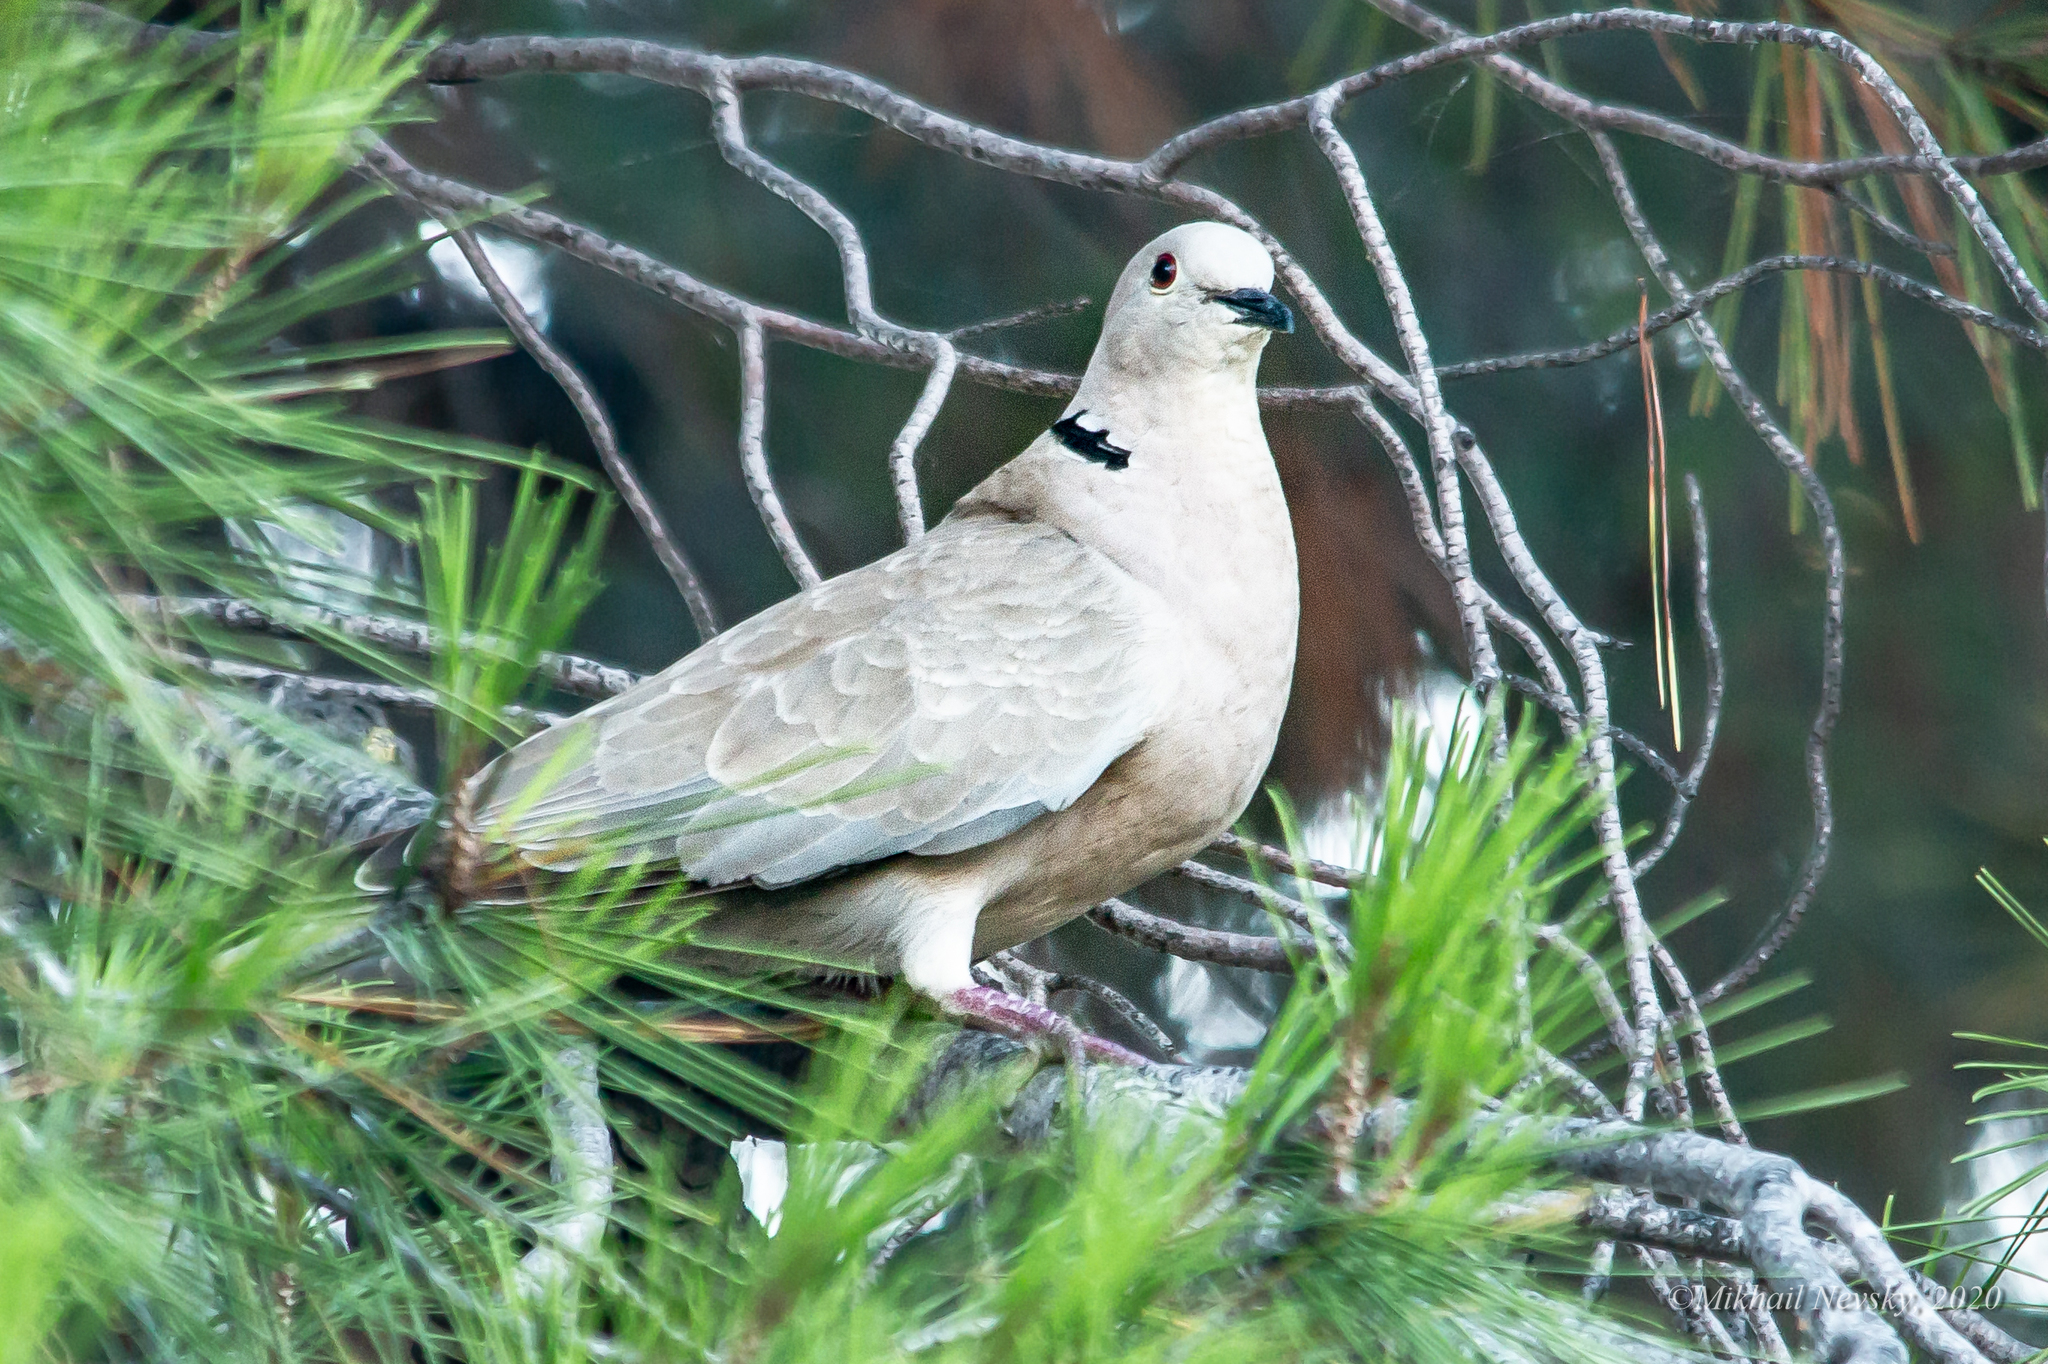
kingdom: Animalia
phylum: Chordata
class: Aves
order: Columbiformes
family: Columbidae
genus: Streptopelia
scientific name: Streptopelia decaocto
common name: Eurasian collared dove
